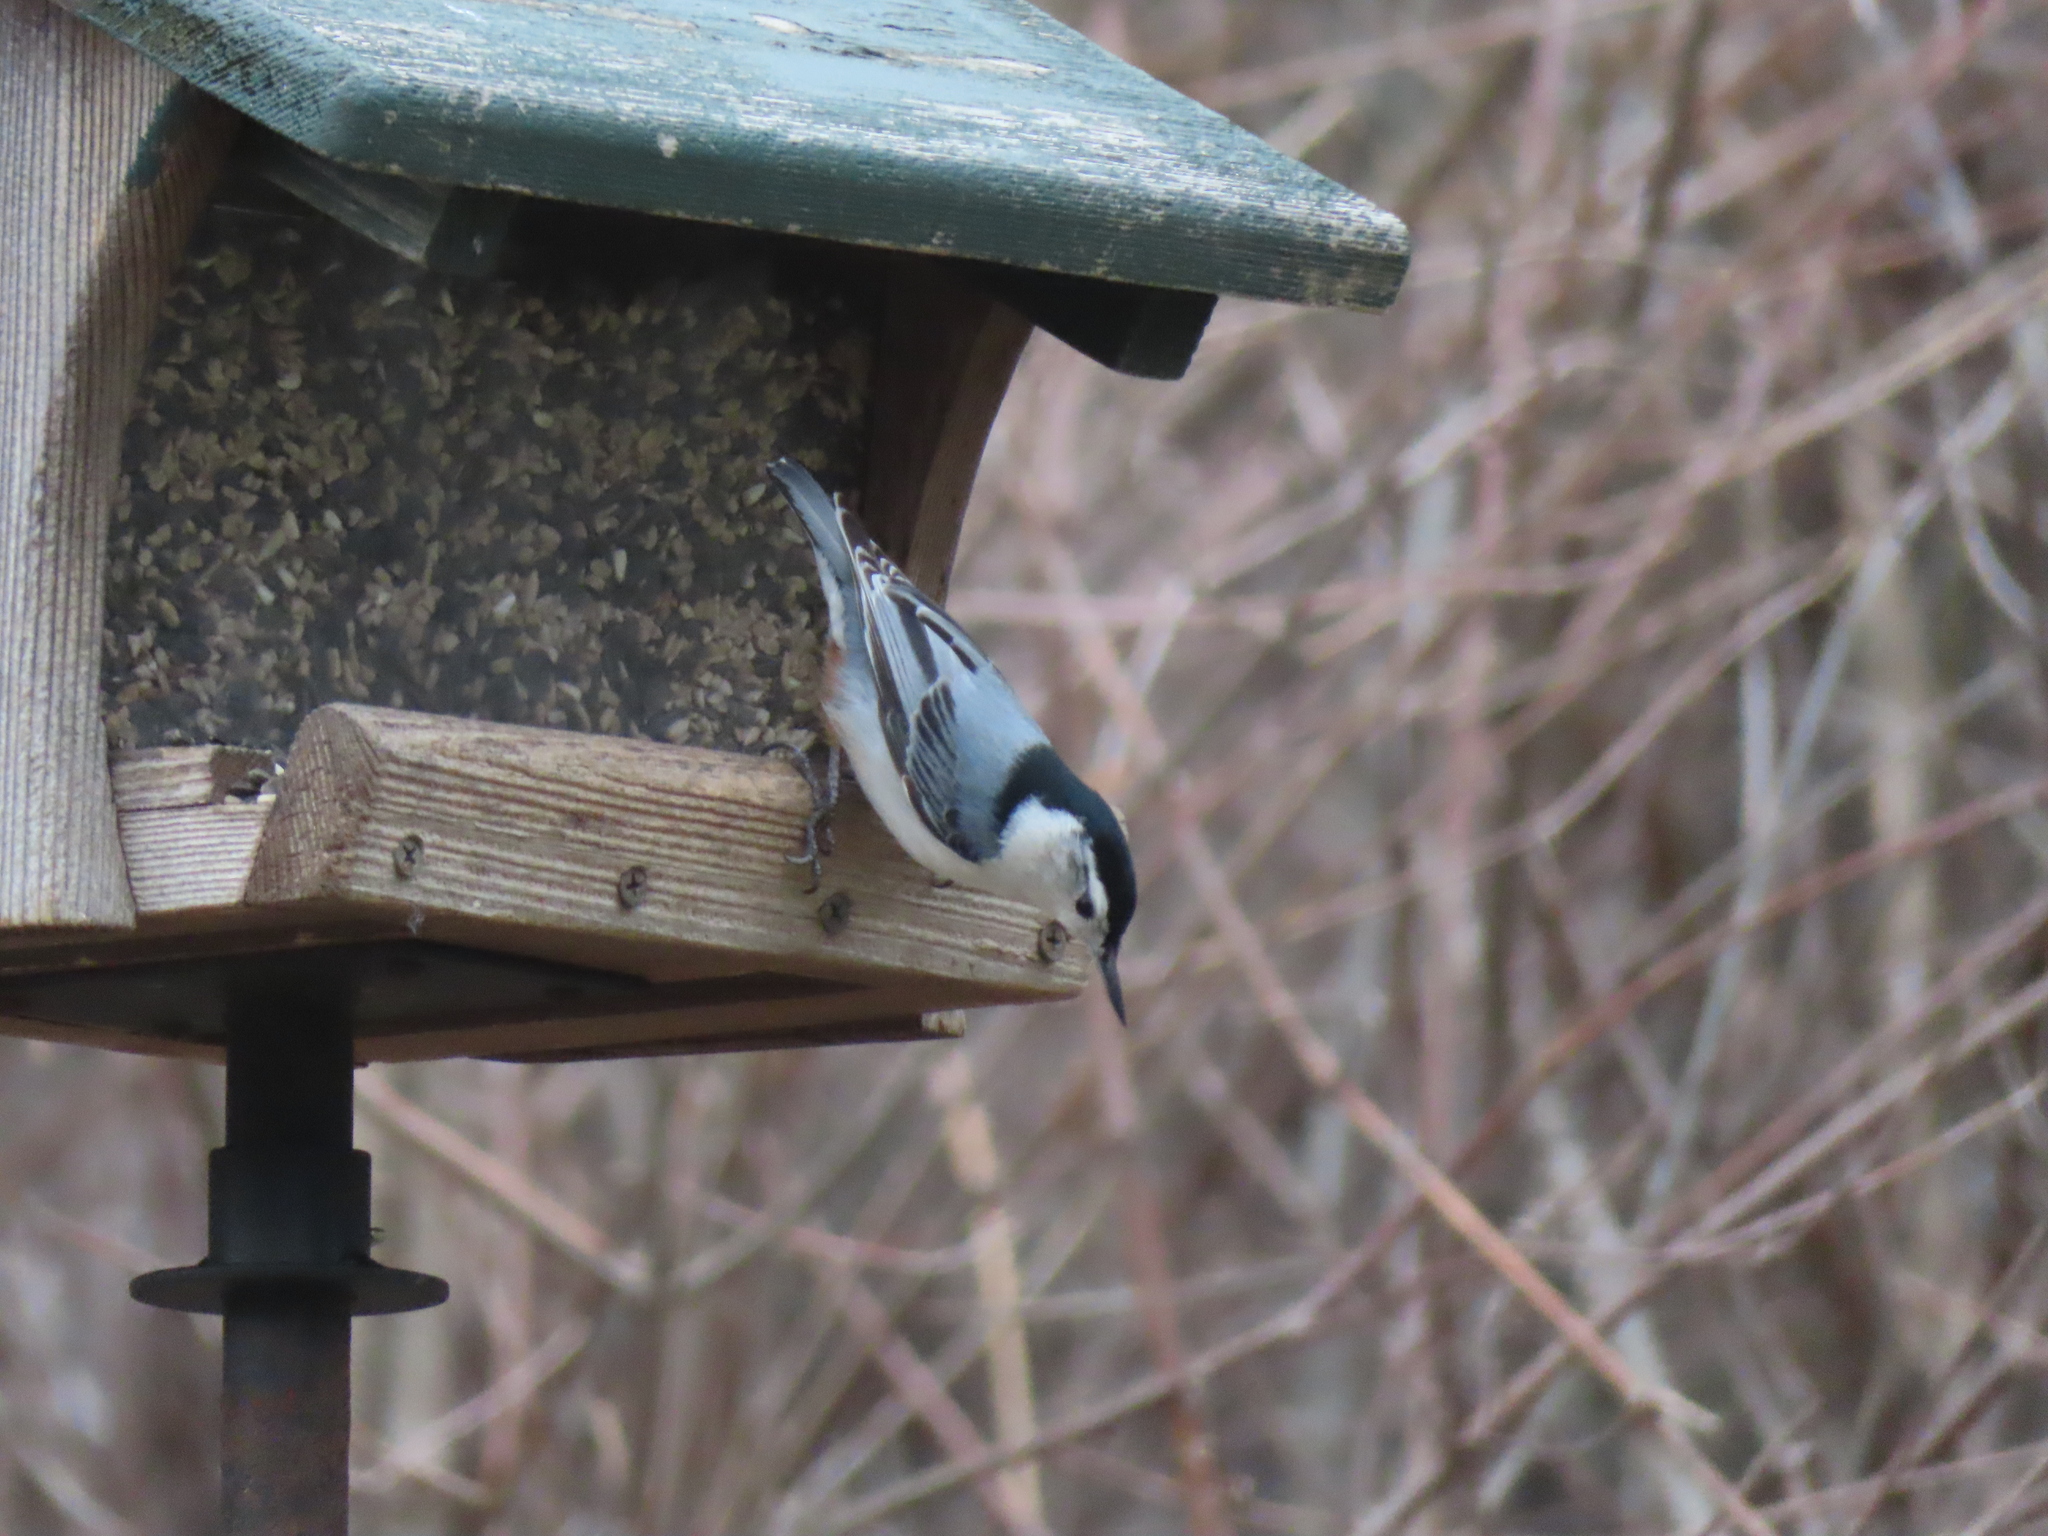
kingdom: Animalia
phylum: Chordata
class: Aves
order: Passeriformes
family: Sittidae
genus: Sitta
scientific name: Sitta carolinensis
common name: White-breasted nuthatch
